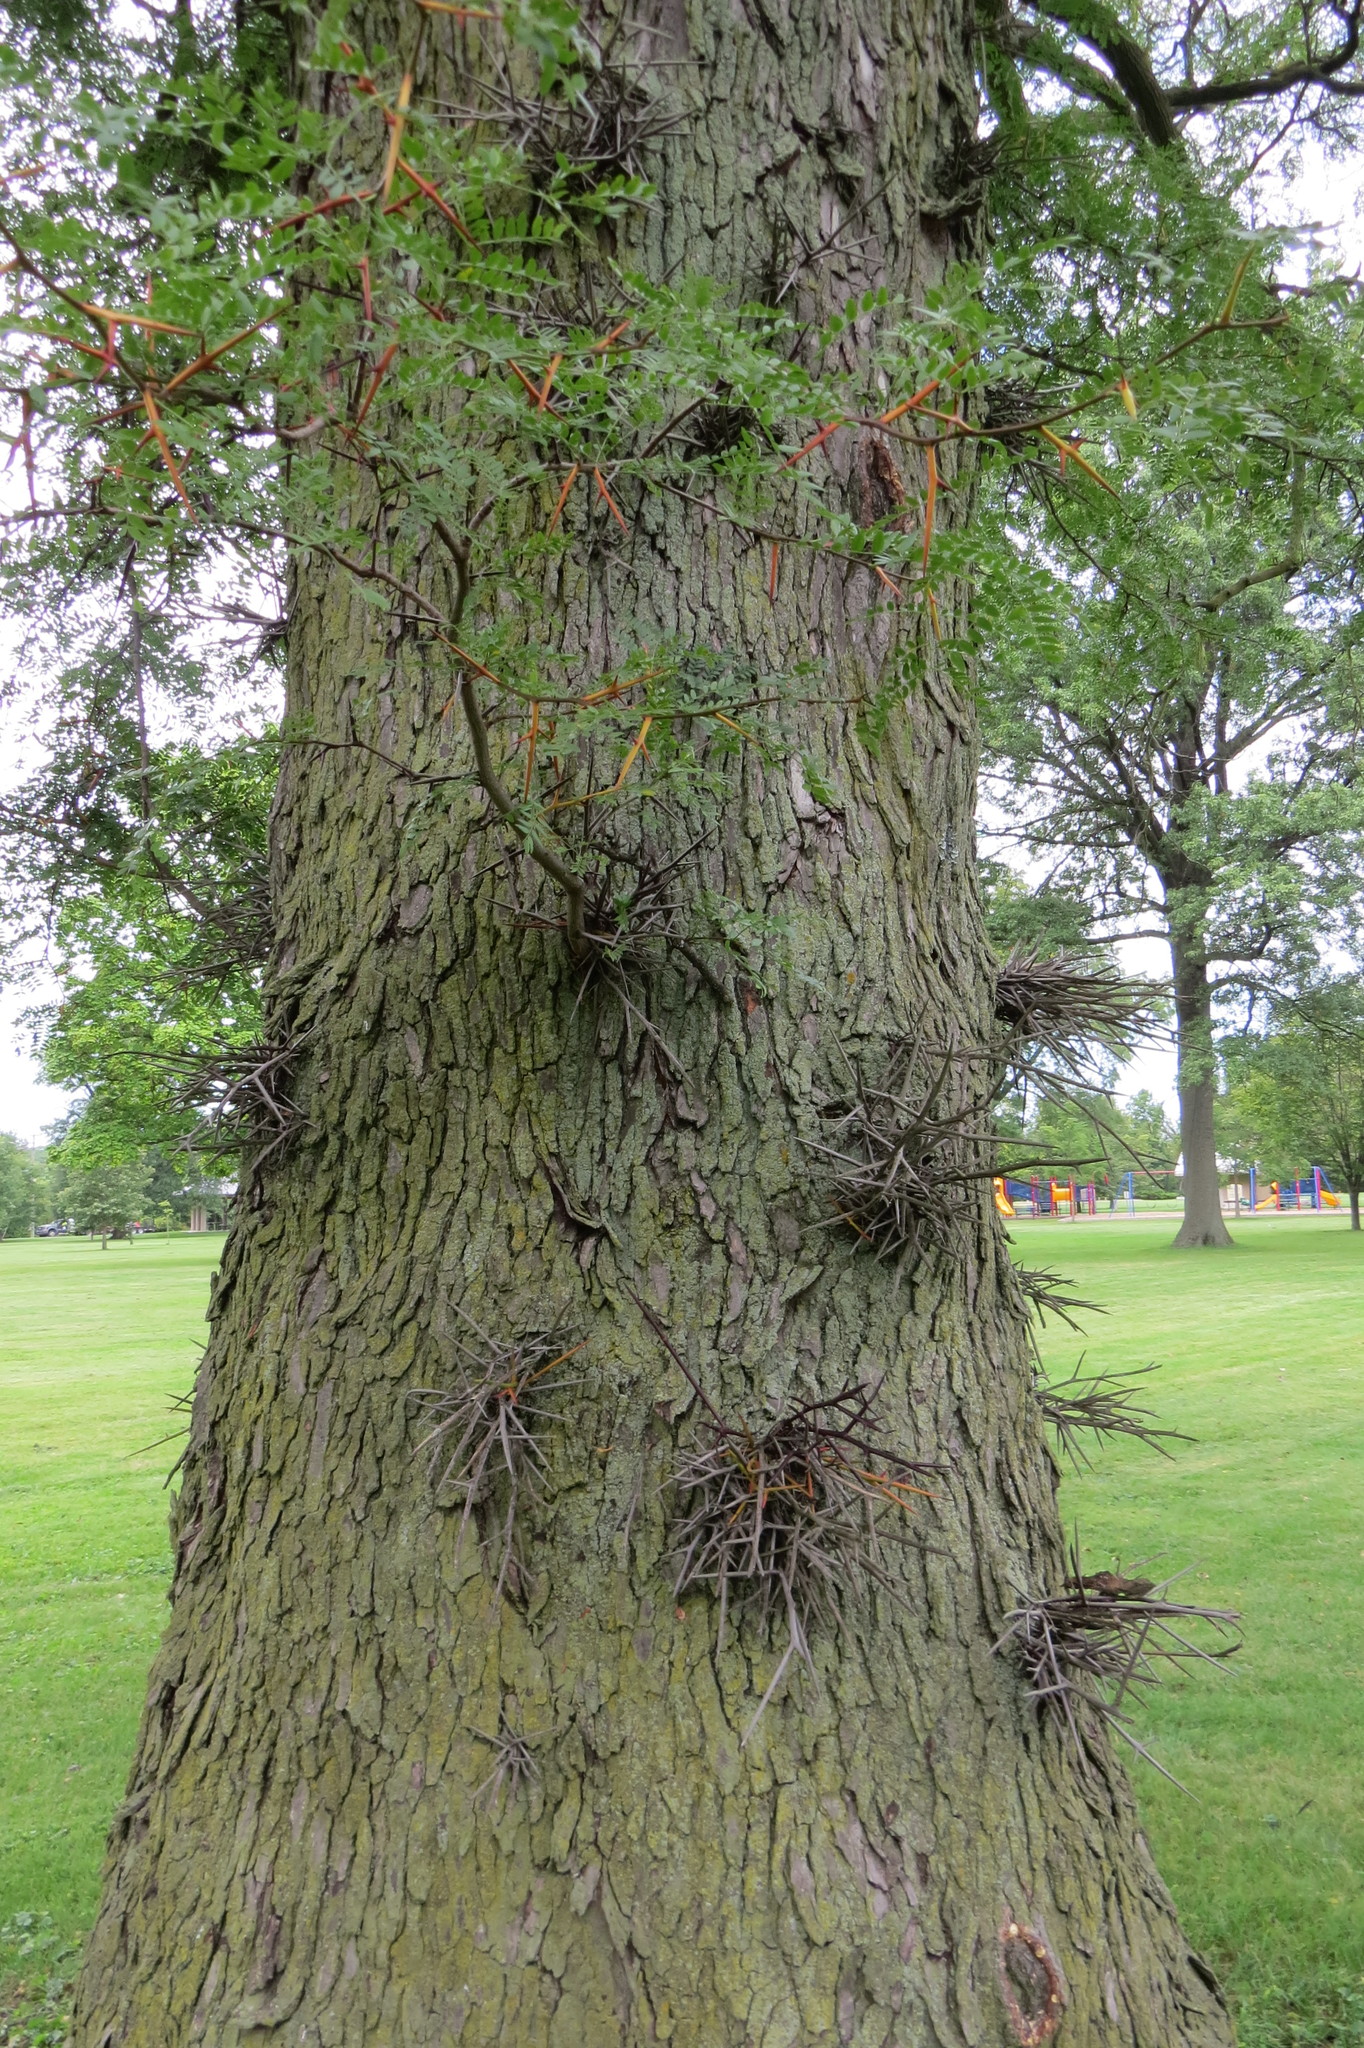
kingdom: Plantae
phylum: Tracheophyta
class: Magnoliopsida
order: Fabales
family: Fabaceae
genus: Gleditsia
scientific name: Gleditsia triacanthos
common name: Common honeylocust
